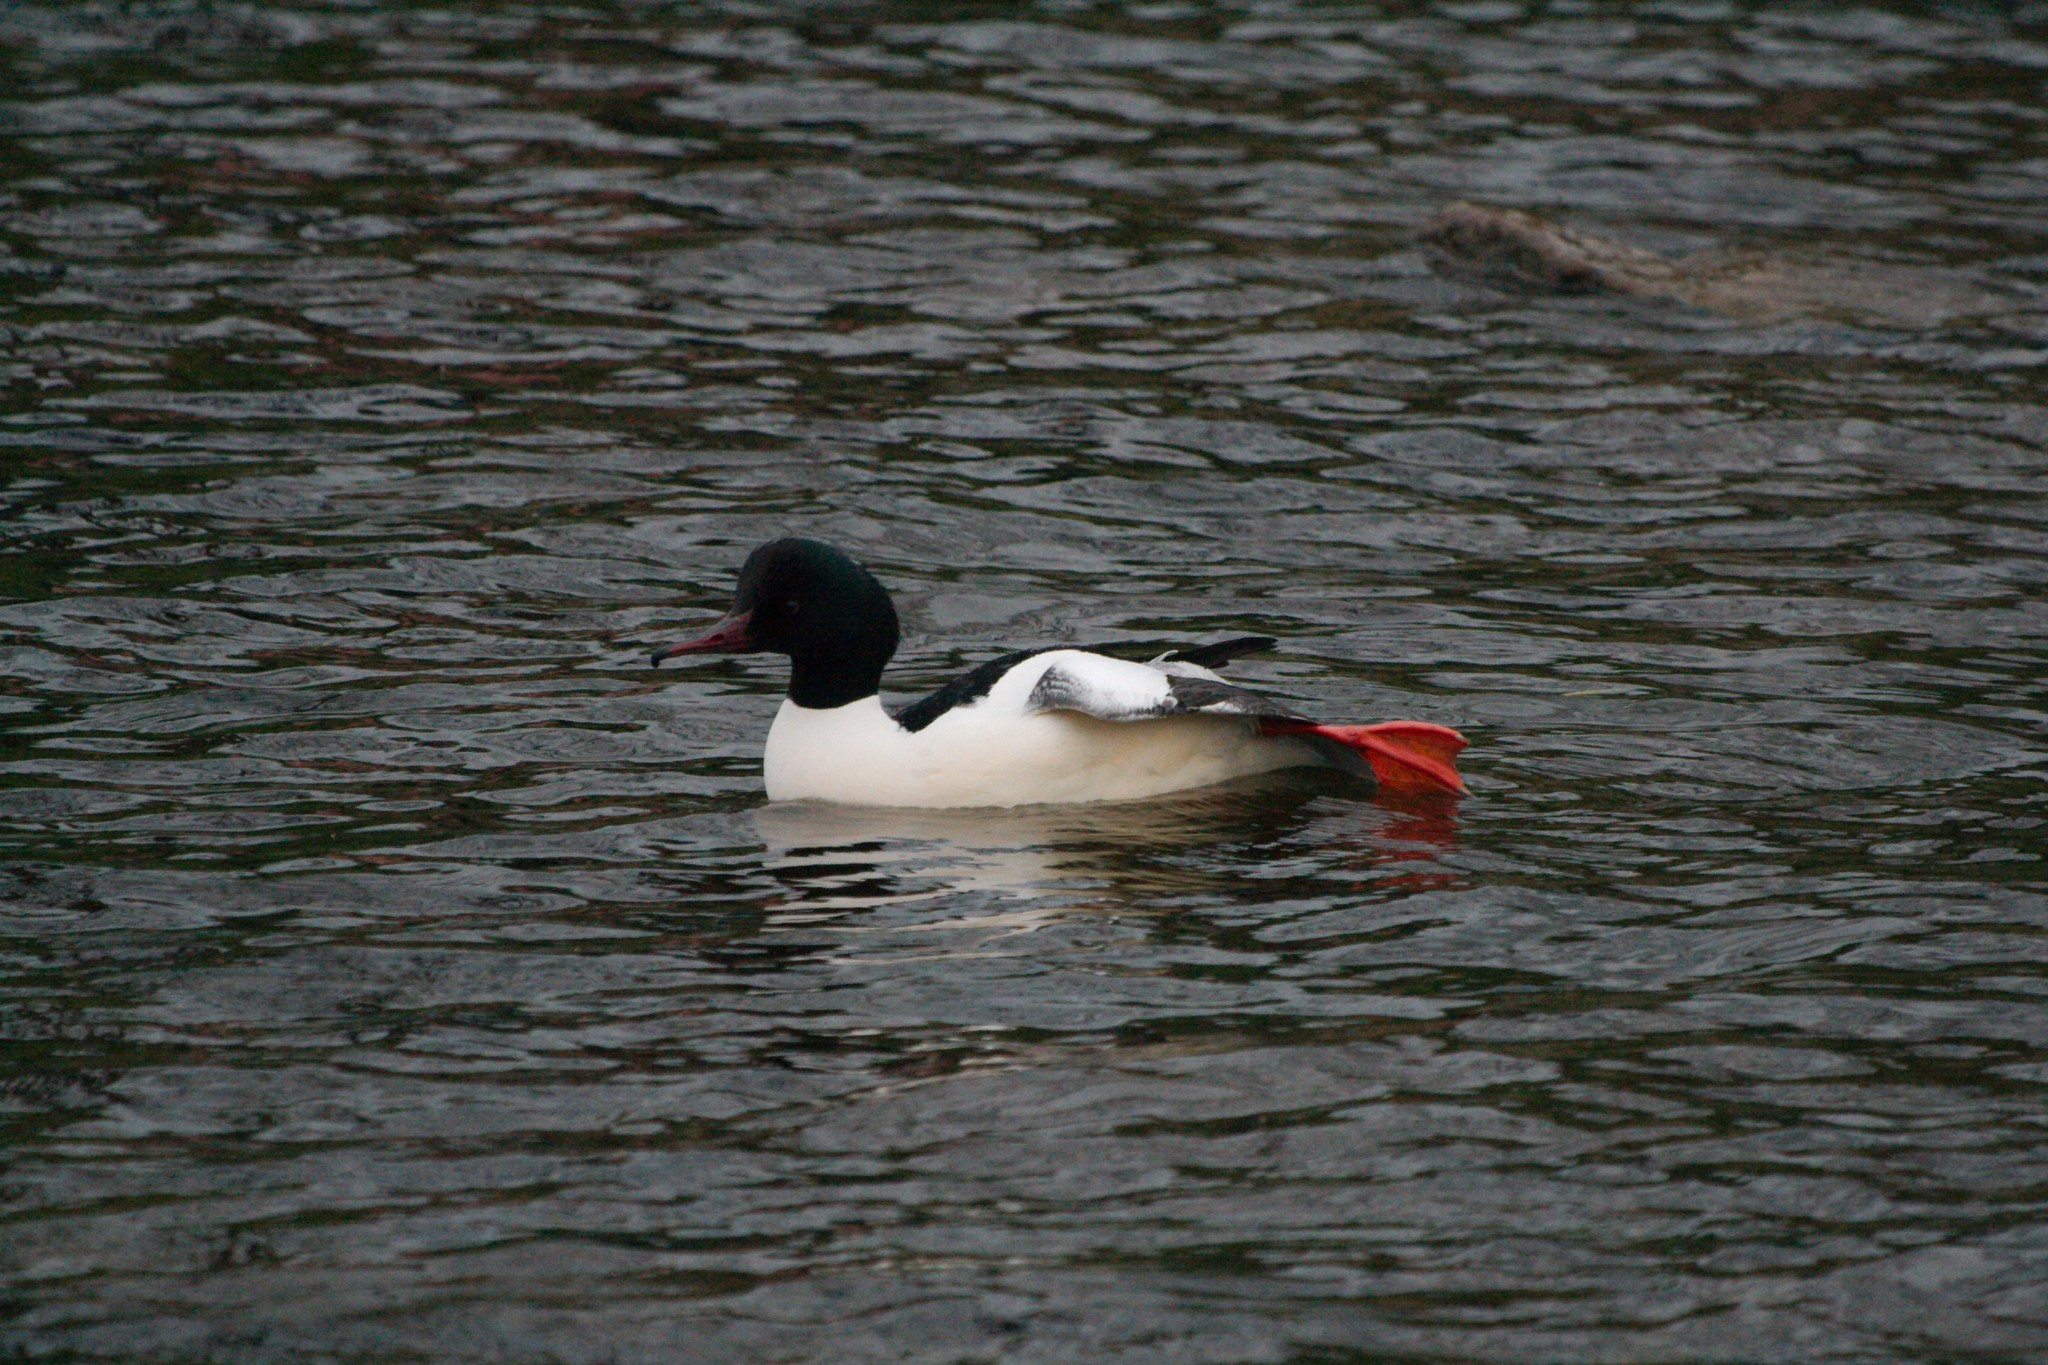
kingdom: Animalia
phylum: Chordata
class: Aves
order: Anseriformes
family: Anatidae
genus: Mergus
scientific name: Mergus merganser
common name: Common merganser
